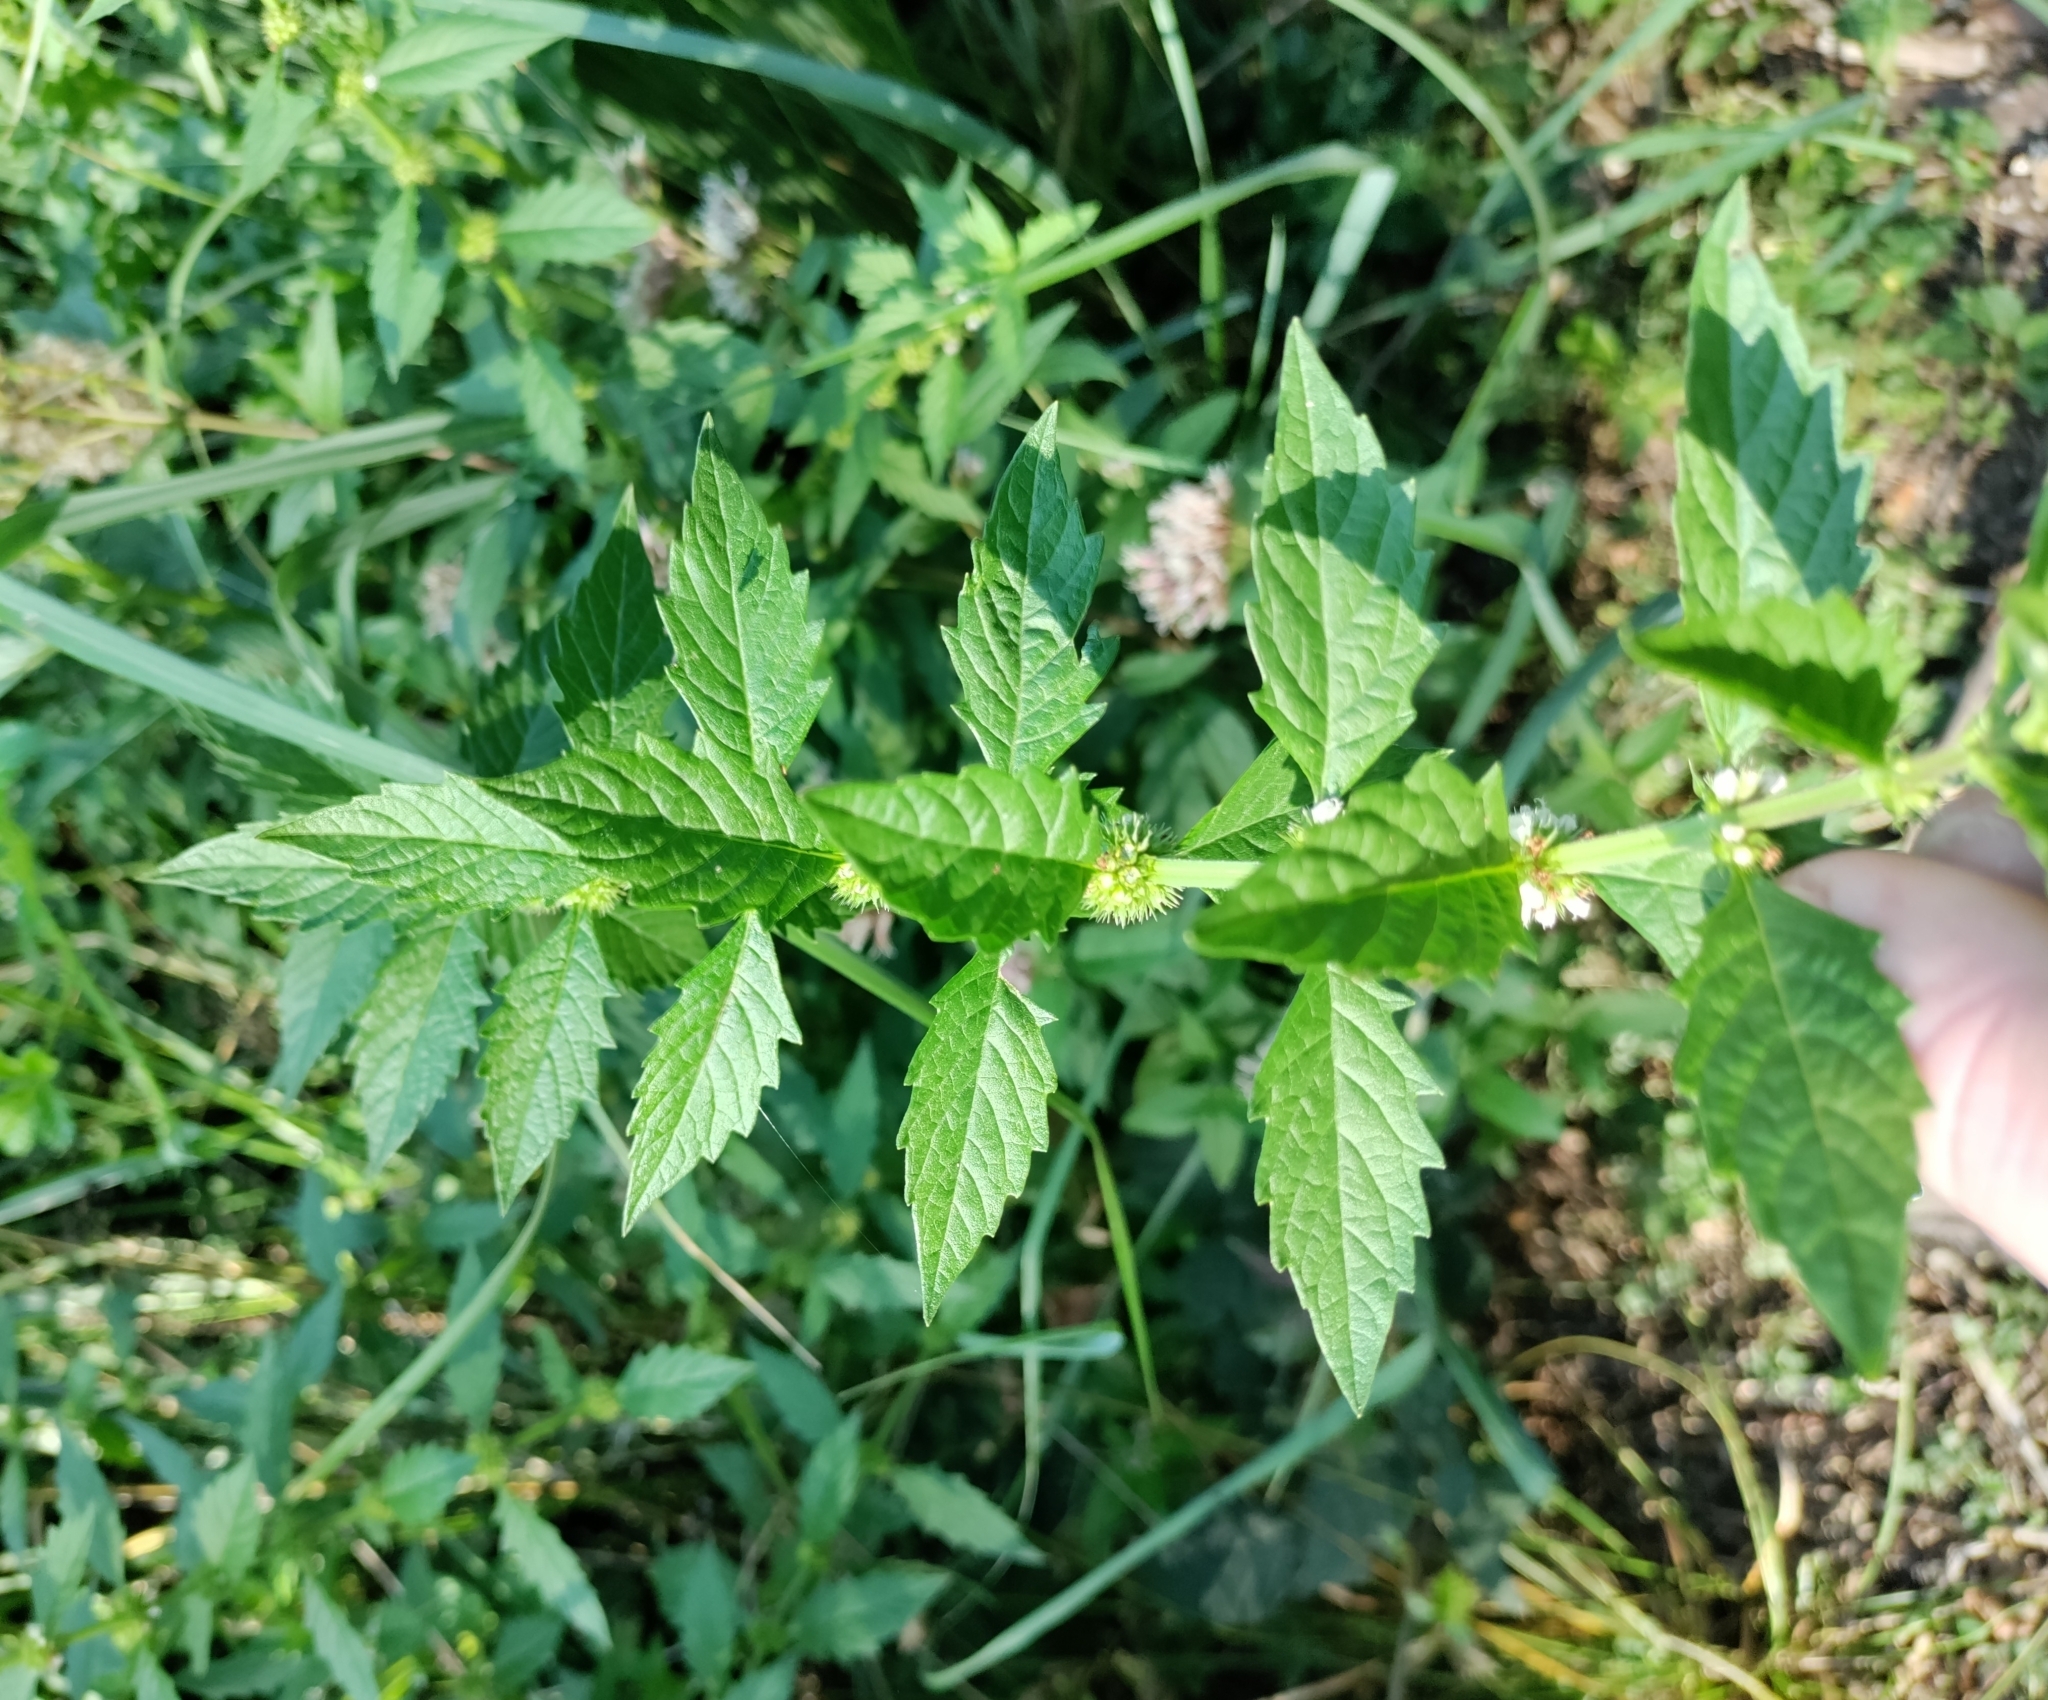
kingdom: Plantae
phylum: Tracheophyta
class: Magnoliopsida
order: Lamiales
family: Lamiaceae
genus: Lycopus
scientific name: Lycopus europaeus
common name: European bugleweed
